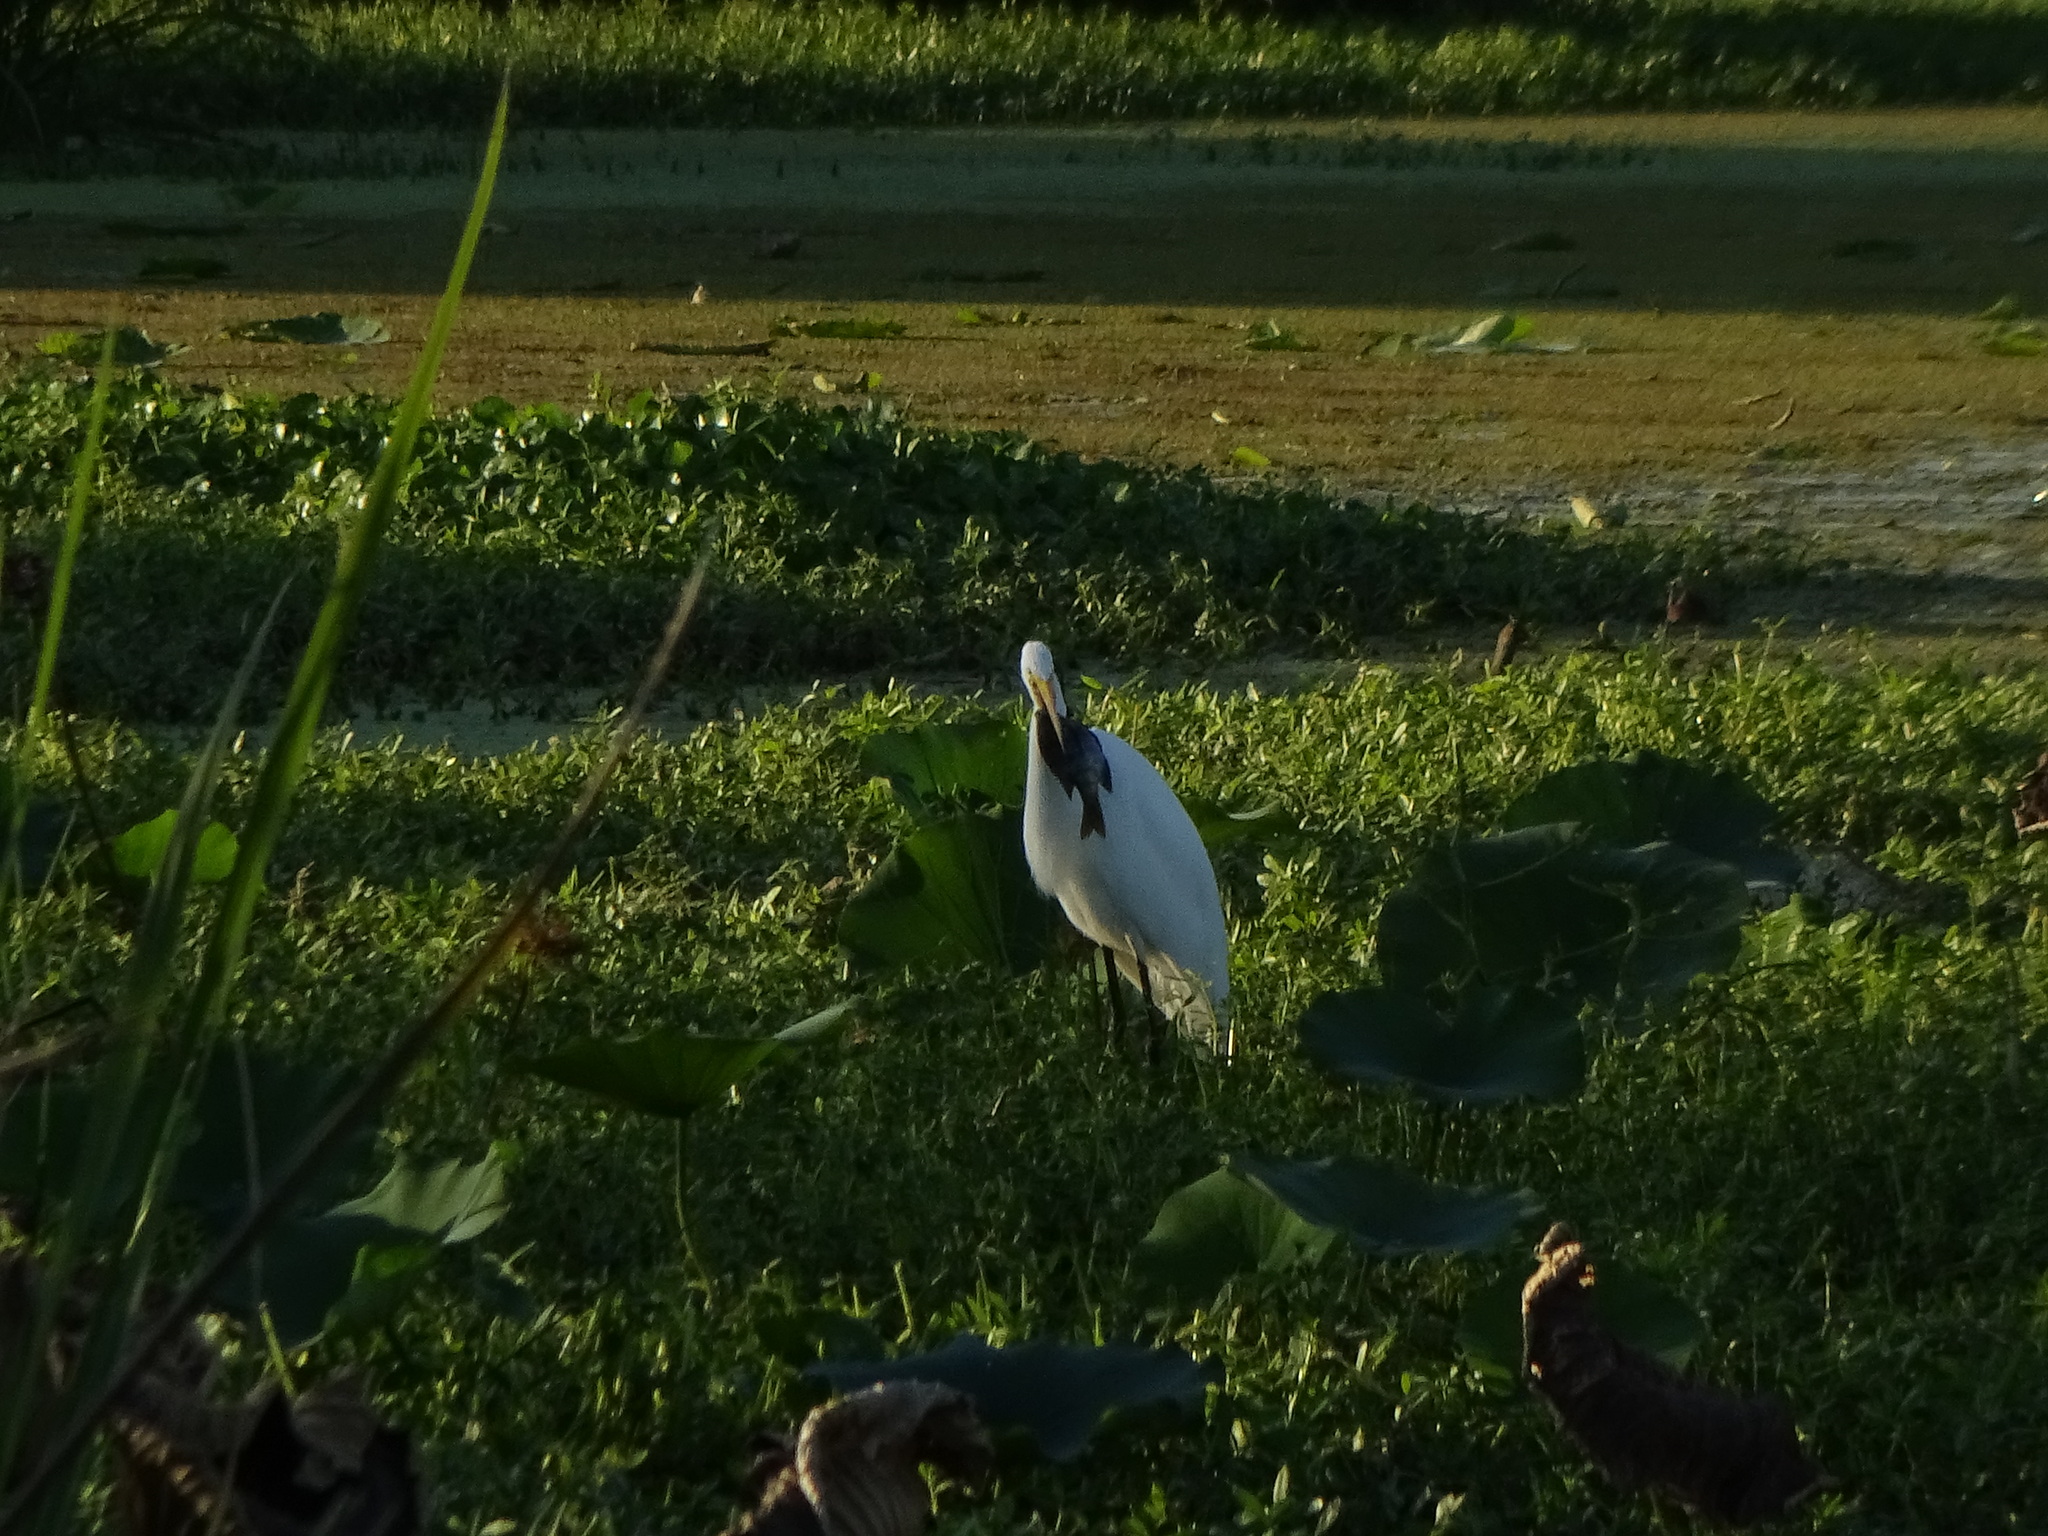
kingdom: Animalia
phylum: Chordata
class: Aves
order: Pelecaniformes
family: Ardeidae
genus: Ardea
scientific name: Ardea alba
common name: Great egret
